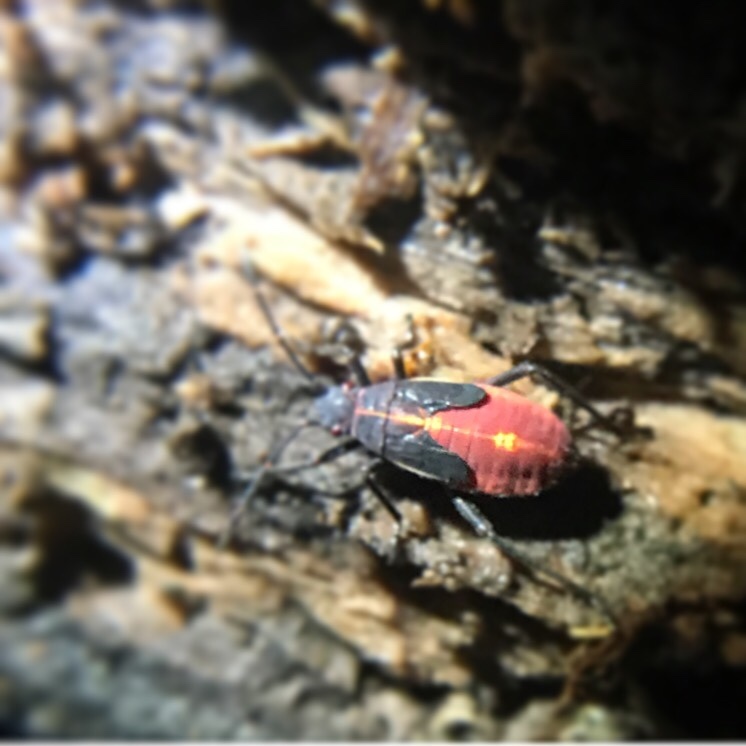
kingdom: Animalia
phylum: Arthropoda
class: Insecta
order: Hemiptera
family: Rhopalidae
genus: Boisea
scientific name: Boisea trivittata
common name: Boxelder bug
